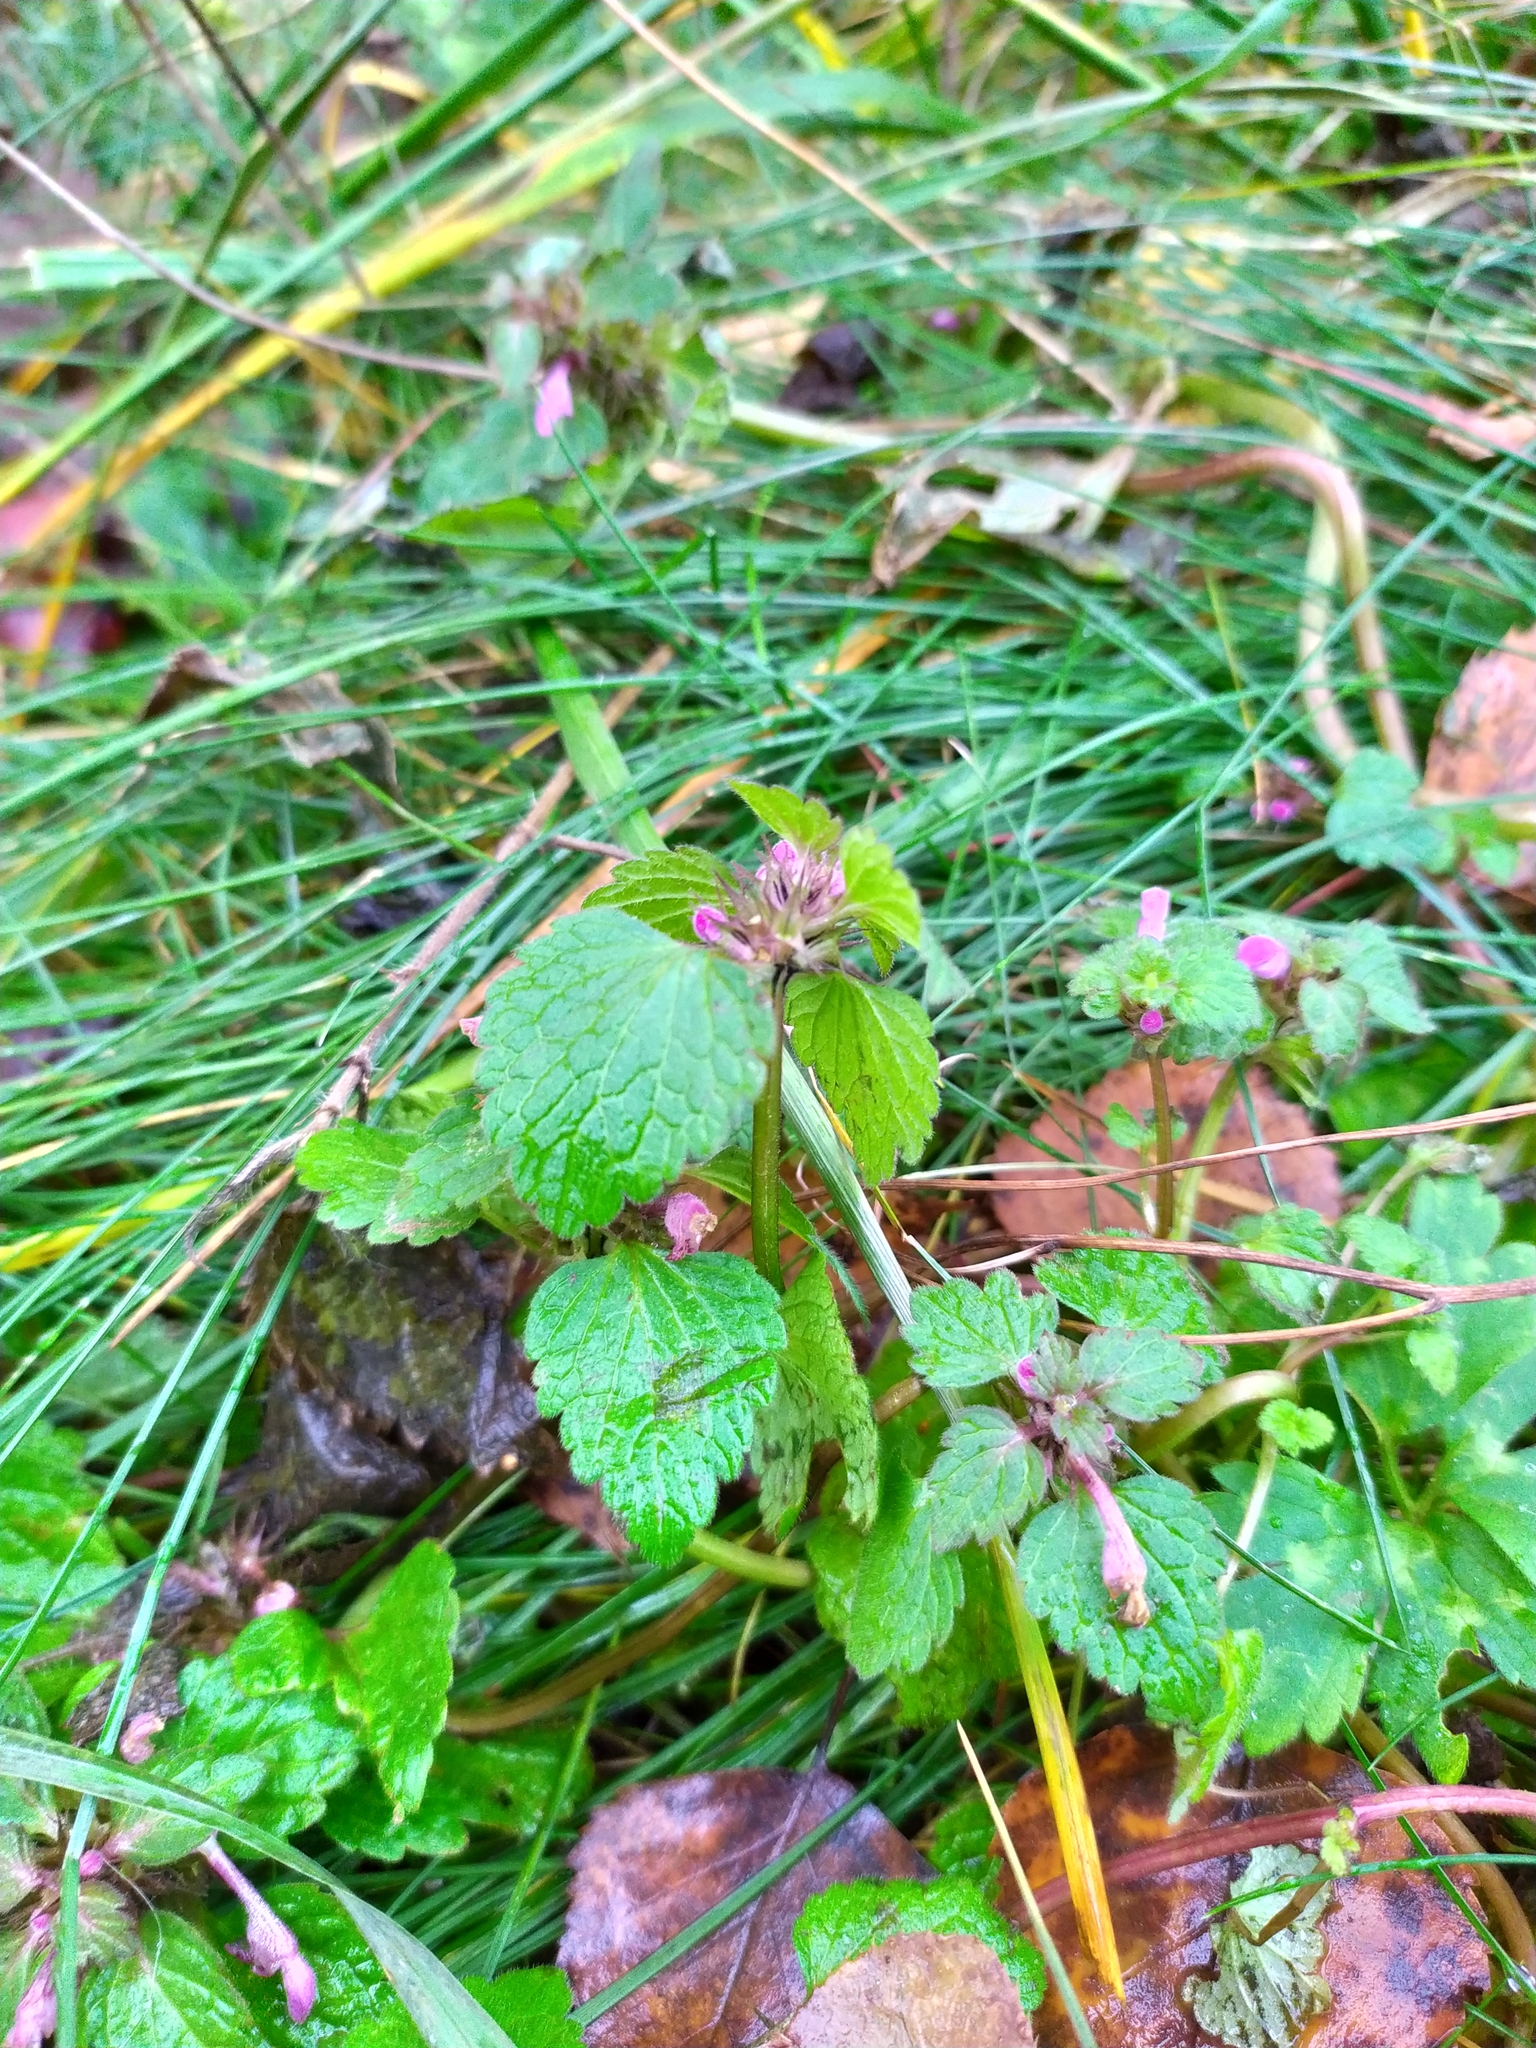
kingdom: Plantae
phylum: Tracheophyta
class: Magnoliopsida
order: Lamiales
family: Lamiaceae
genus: Lamium
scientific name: Lamium maculatum
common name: Spotted dead-nettle
